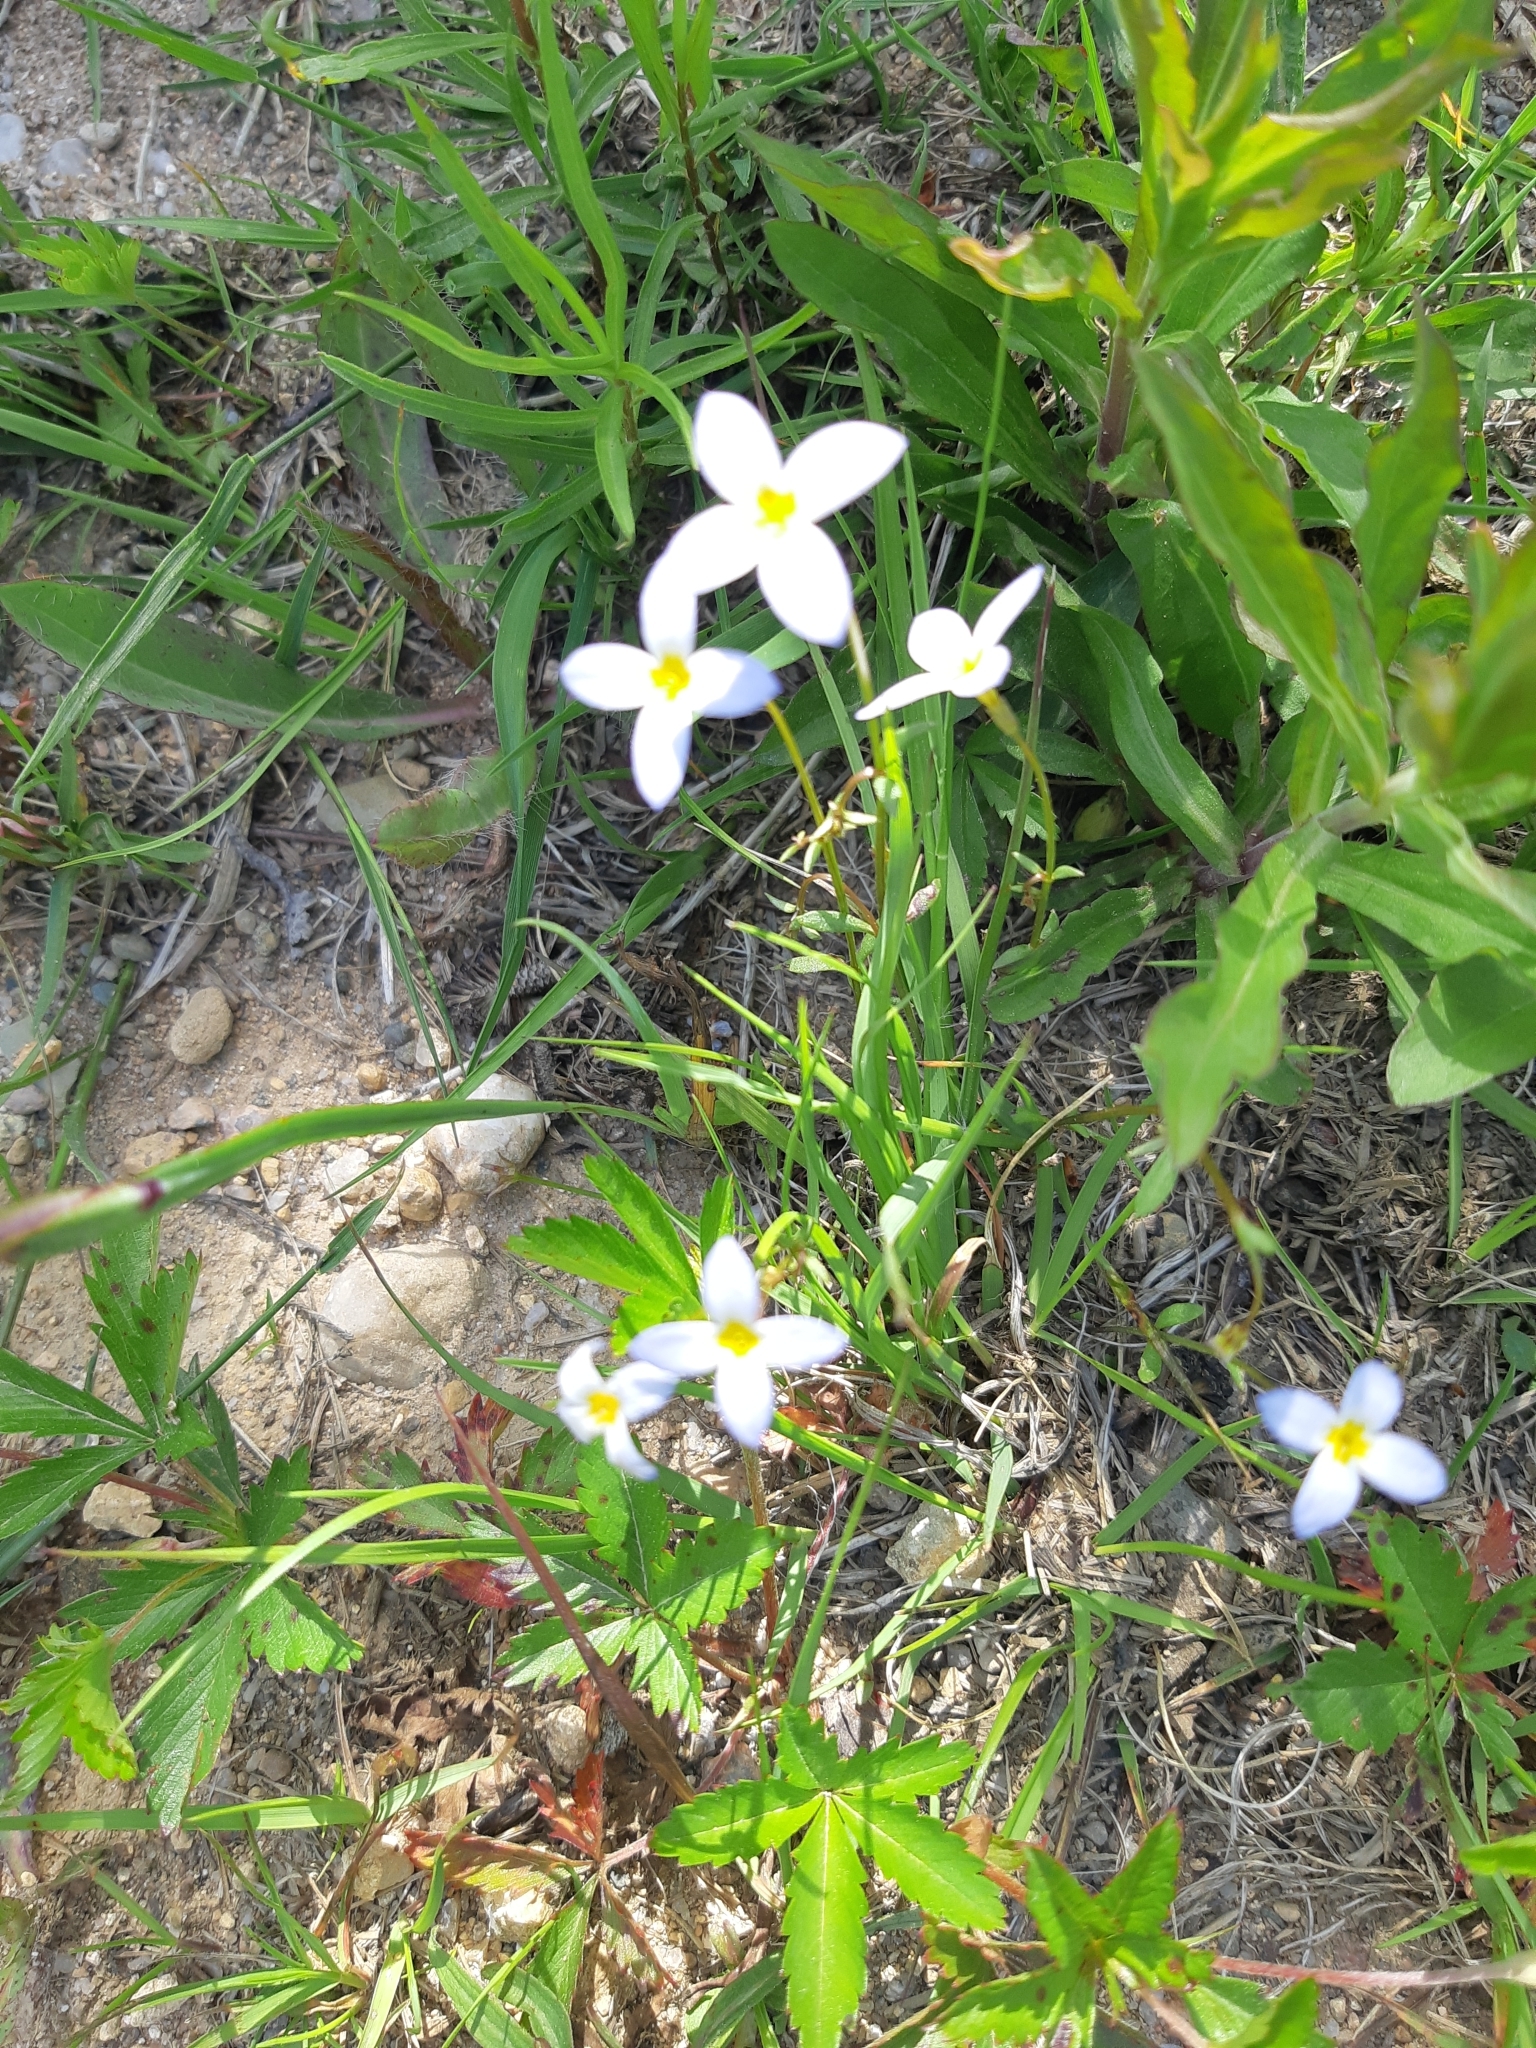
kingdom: Plantae
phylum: Tracheophyta
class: Magnoliopsida
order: Gentianales
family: Rubiaceae
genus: Houstonia
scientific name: Houstonia caerulea
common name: Bluets
